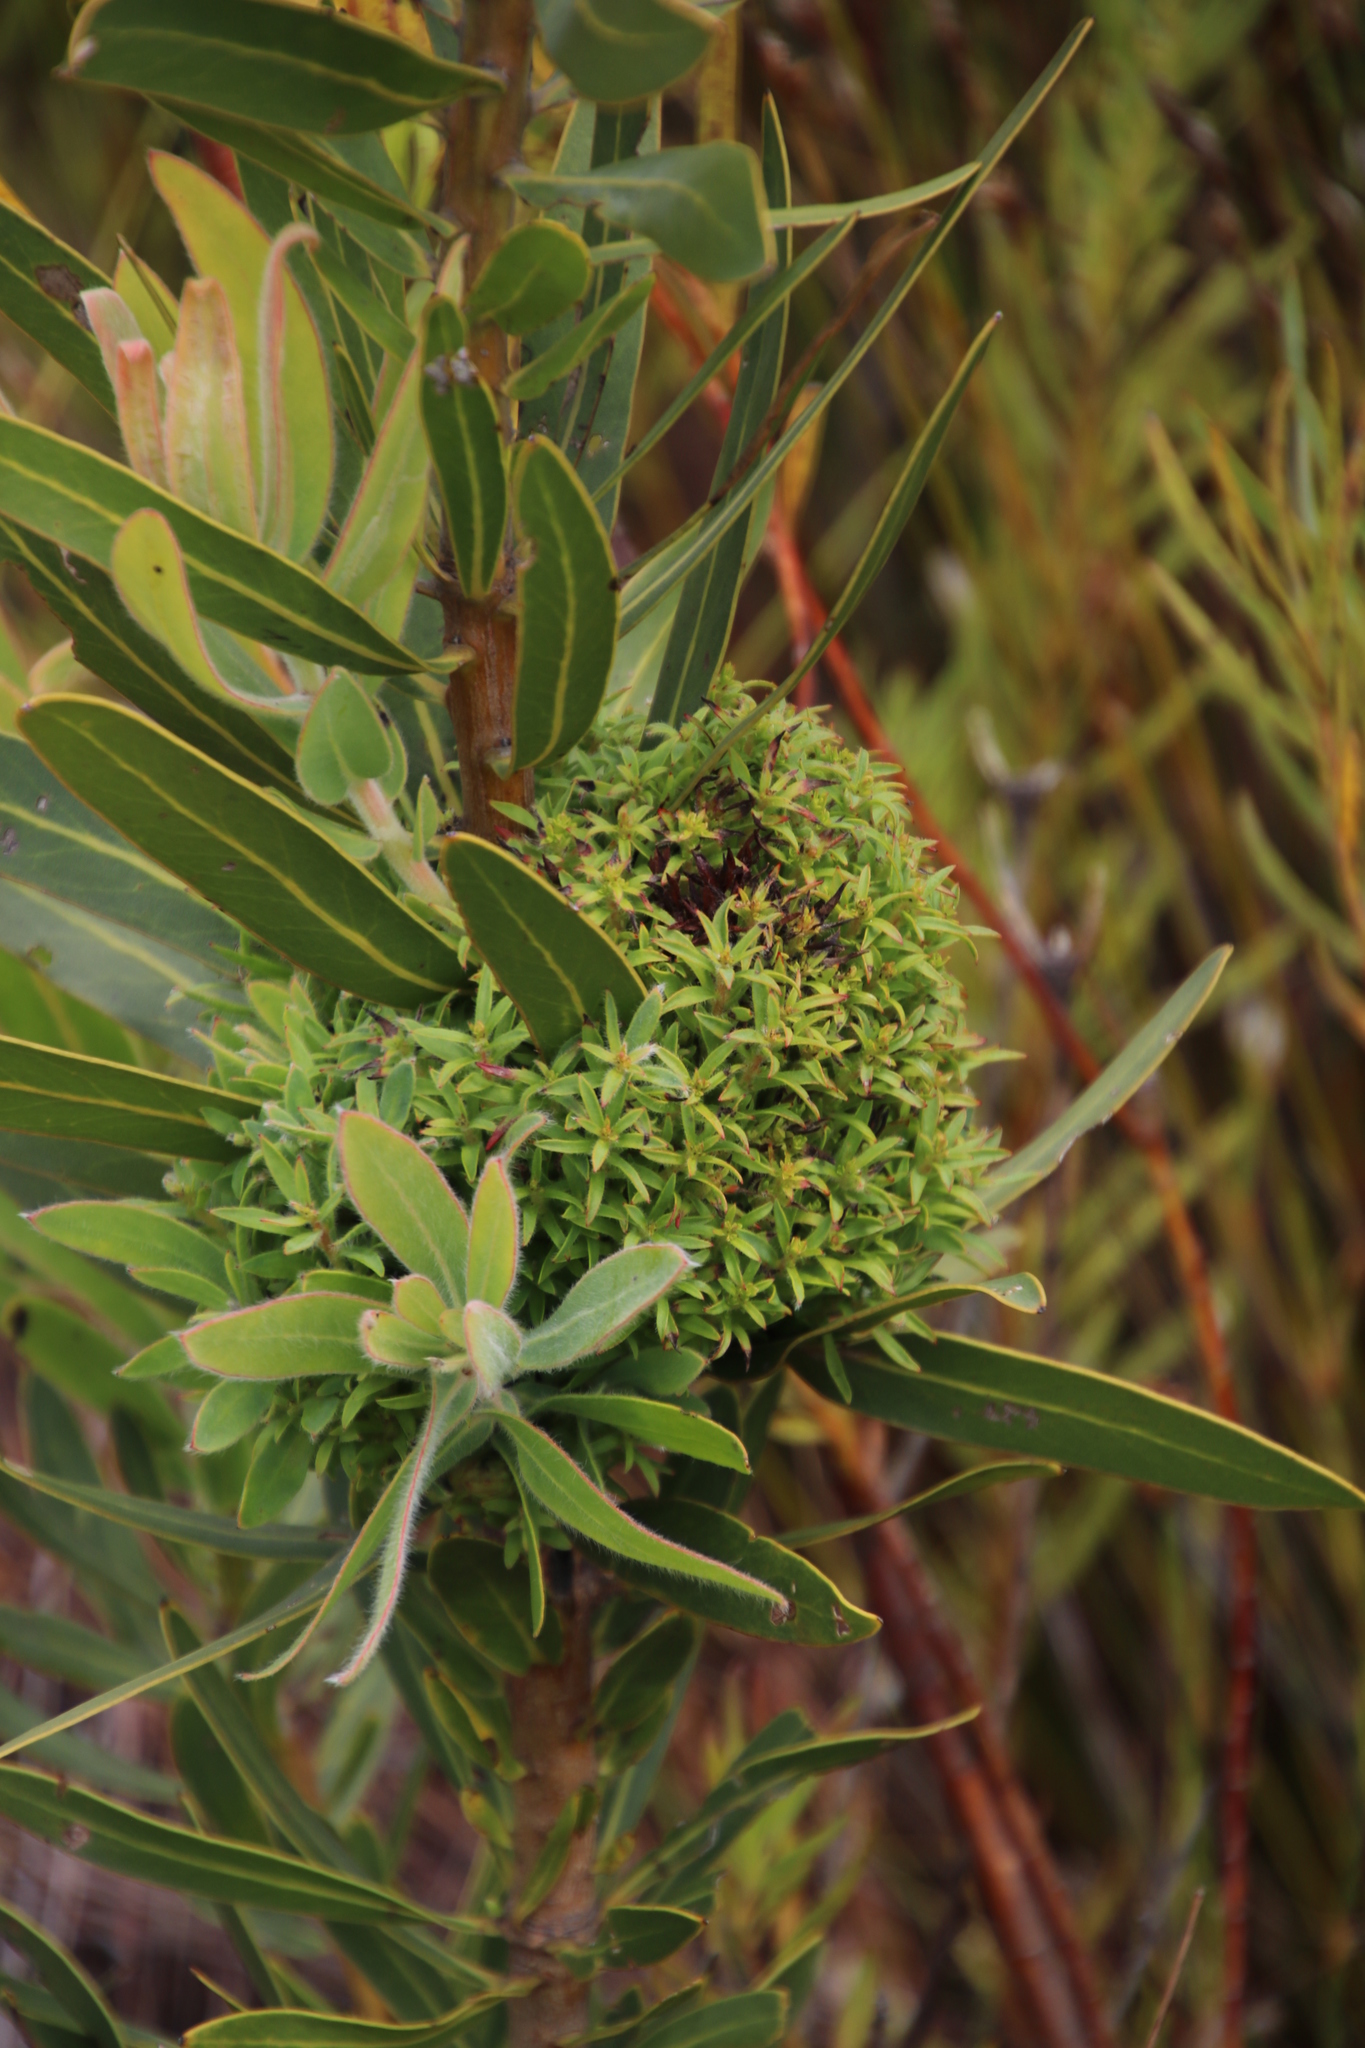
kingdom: Bacteria
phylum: Firmicutes
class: Bacilli
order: Acholeplasmatales
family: Acholeplasmataceae
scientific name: Acholeplasmataceae
